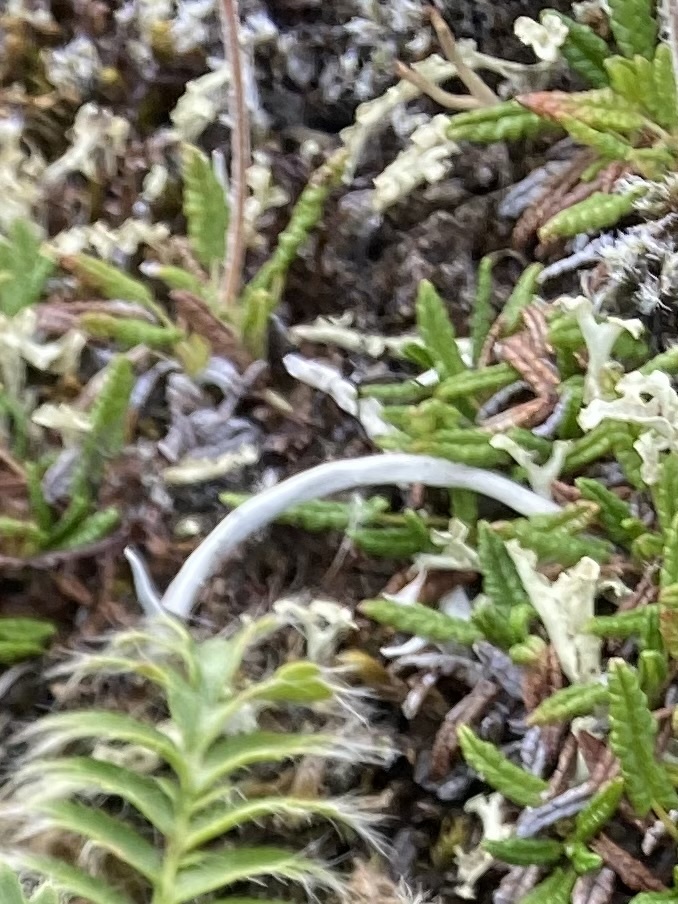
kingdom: Fungi
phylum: Ascomycota
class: Lecanoromycetes
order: Pertusariales
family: Icmadophilaceae
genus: Thamnolia
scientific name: Thamnolia vermicularis
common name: Whiteworm lichen
